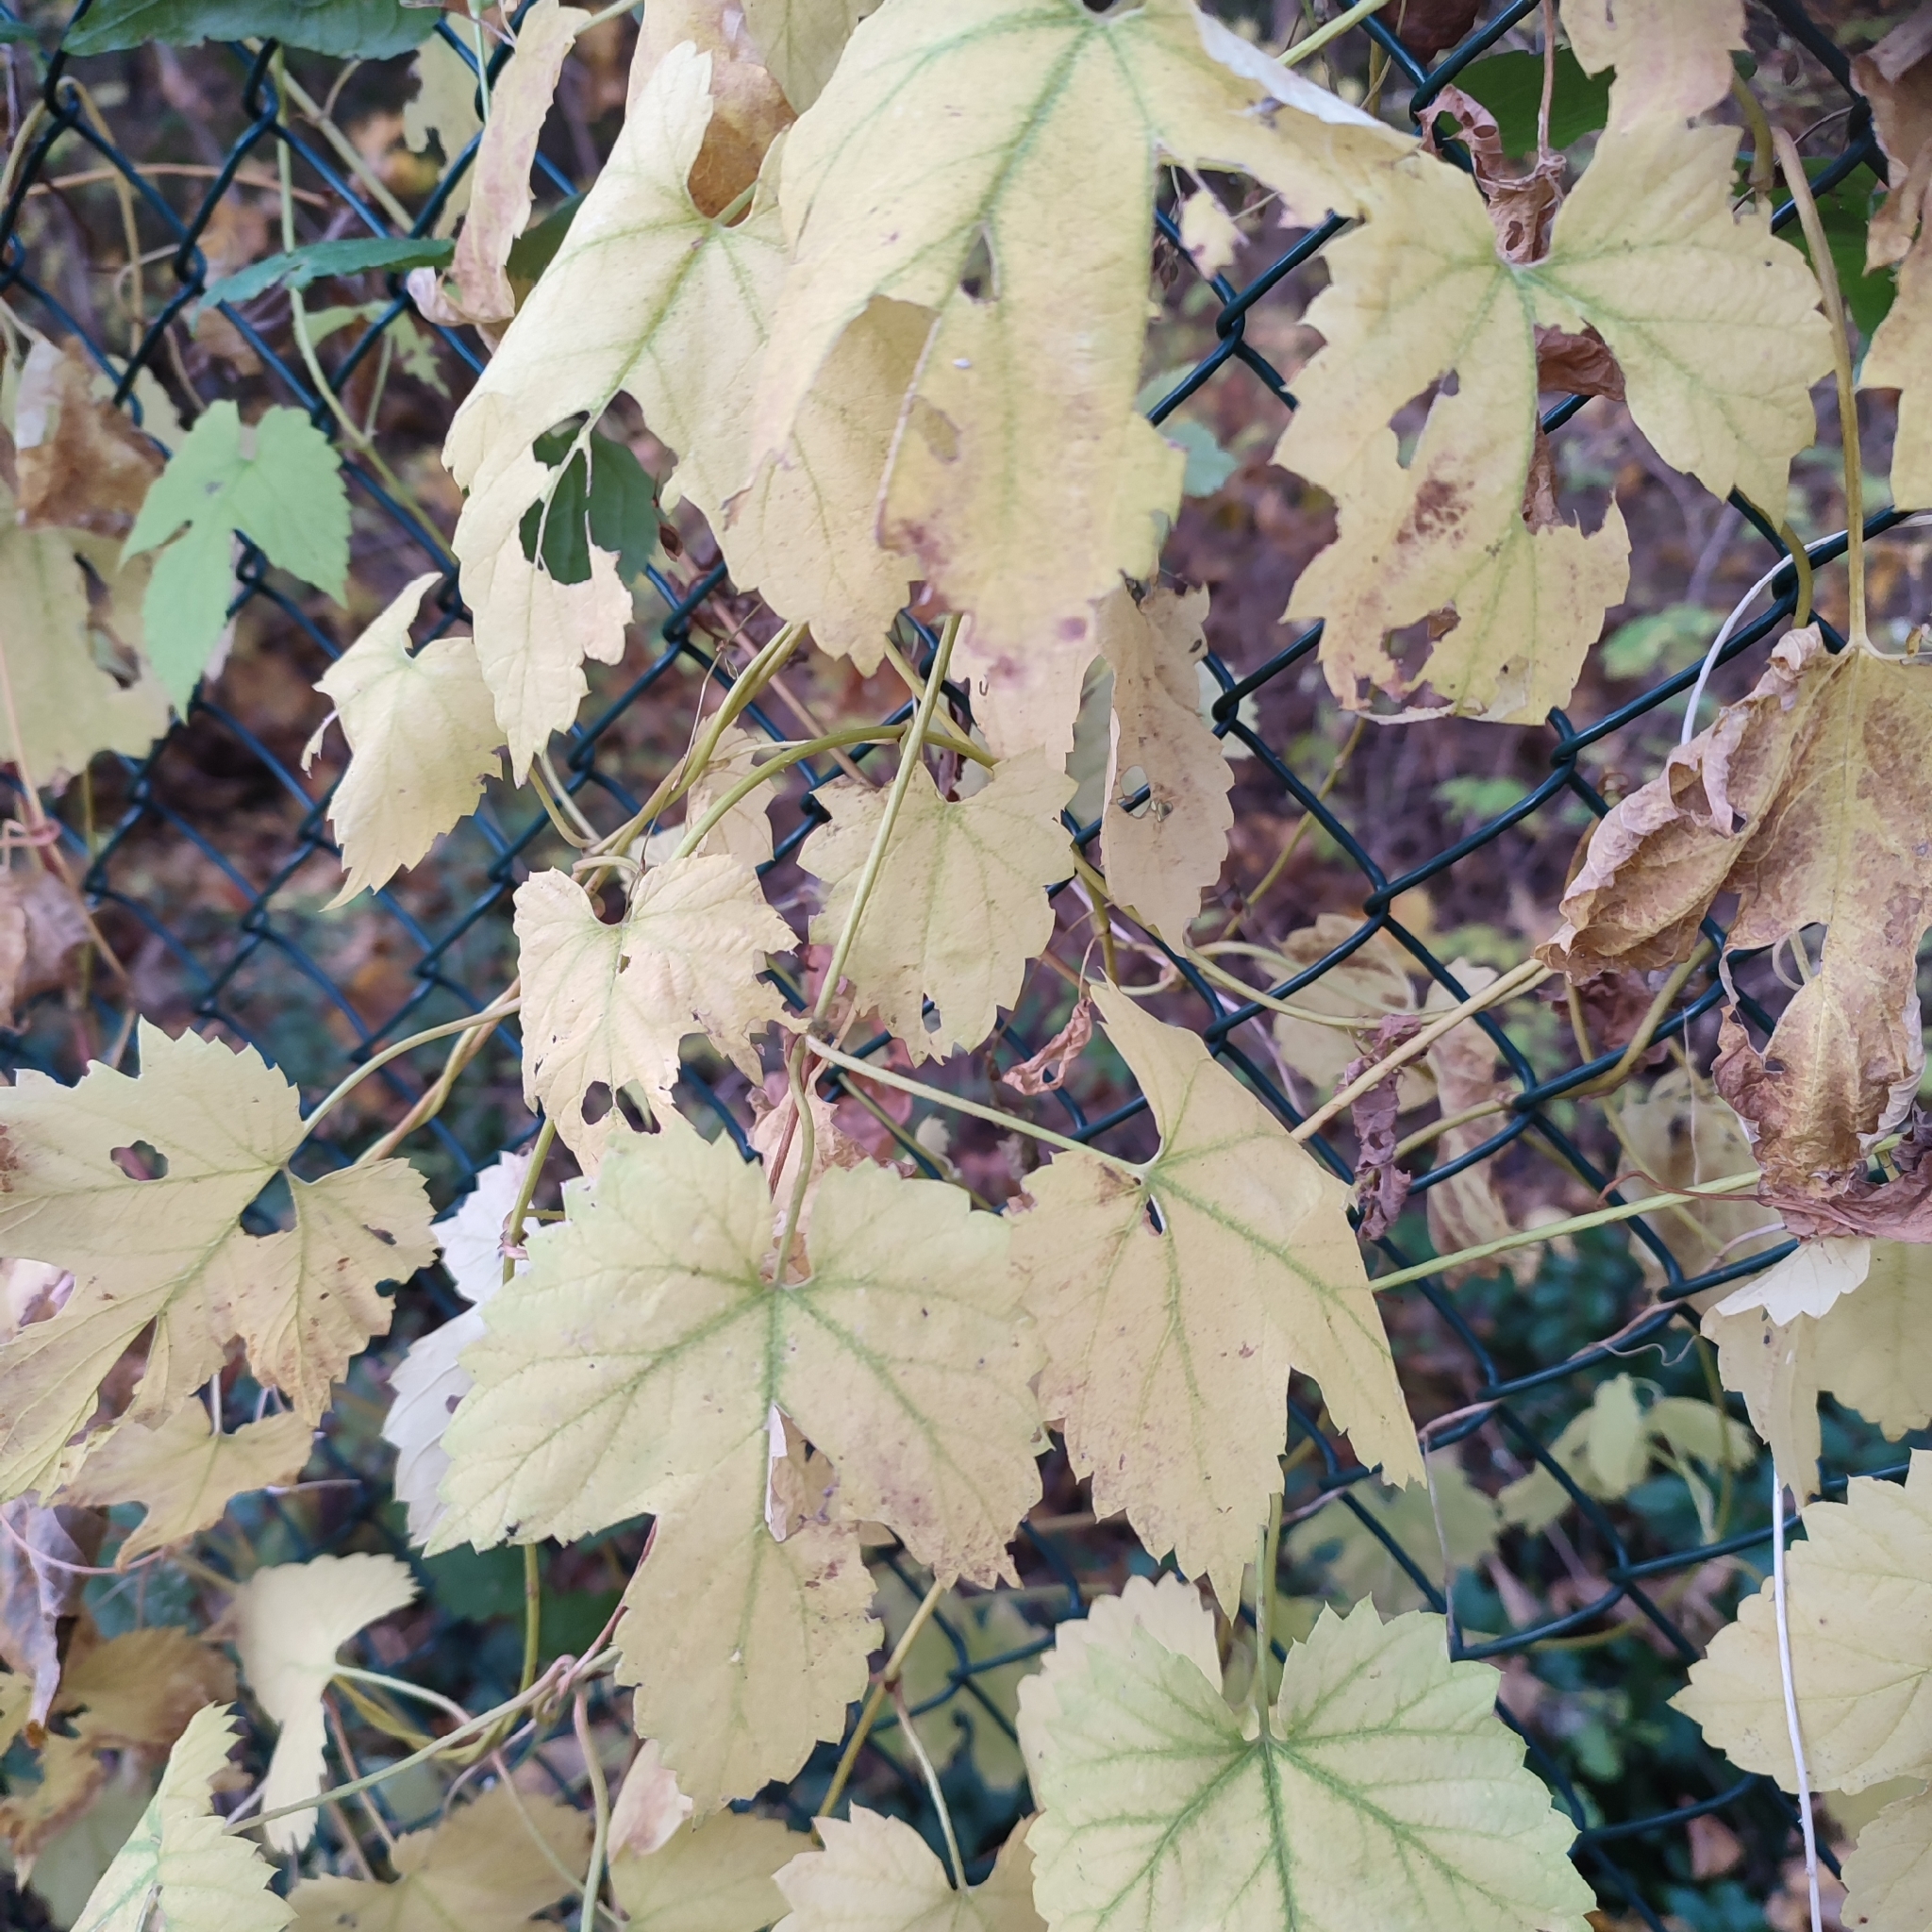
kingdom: Plantae
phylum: Tracheophyta
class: Magnoliopsida
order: Rosales
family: Cannabaceae
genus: Humulus
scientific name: Humulus lupulus
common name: Hop
